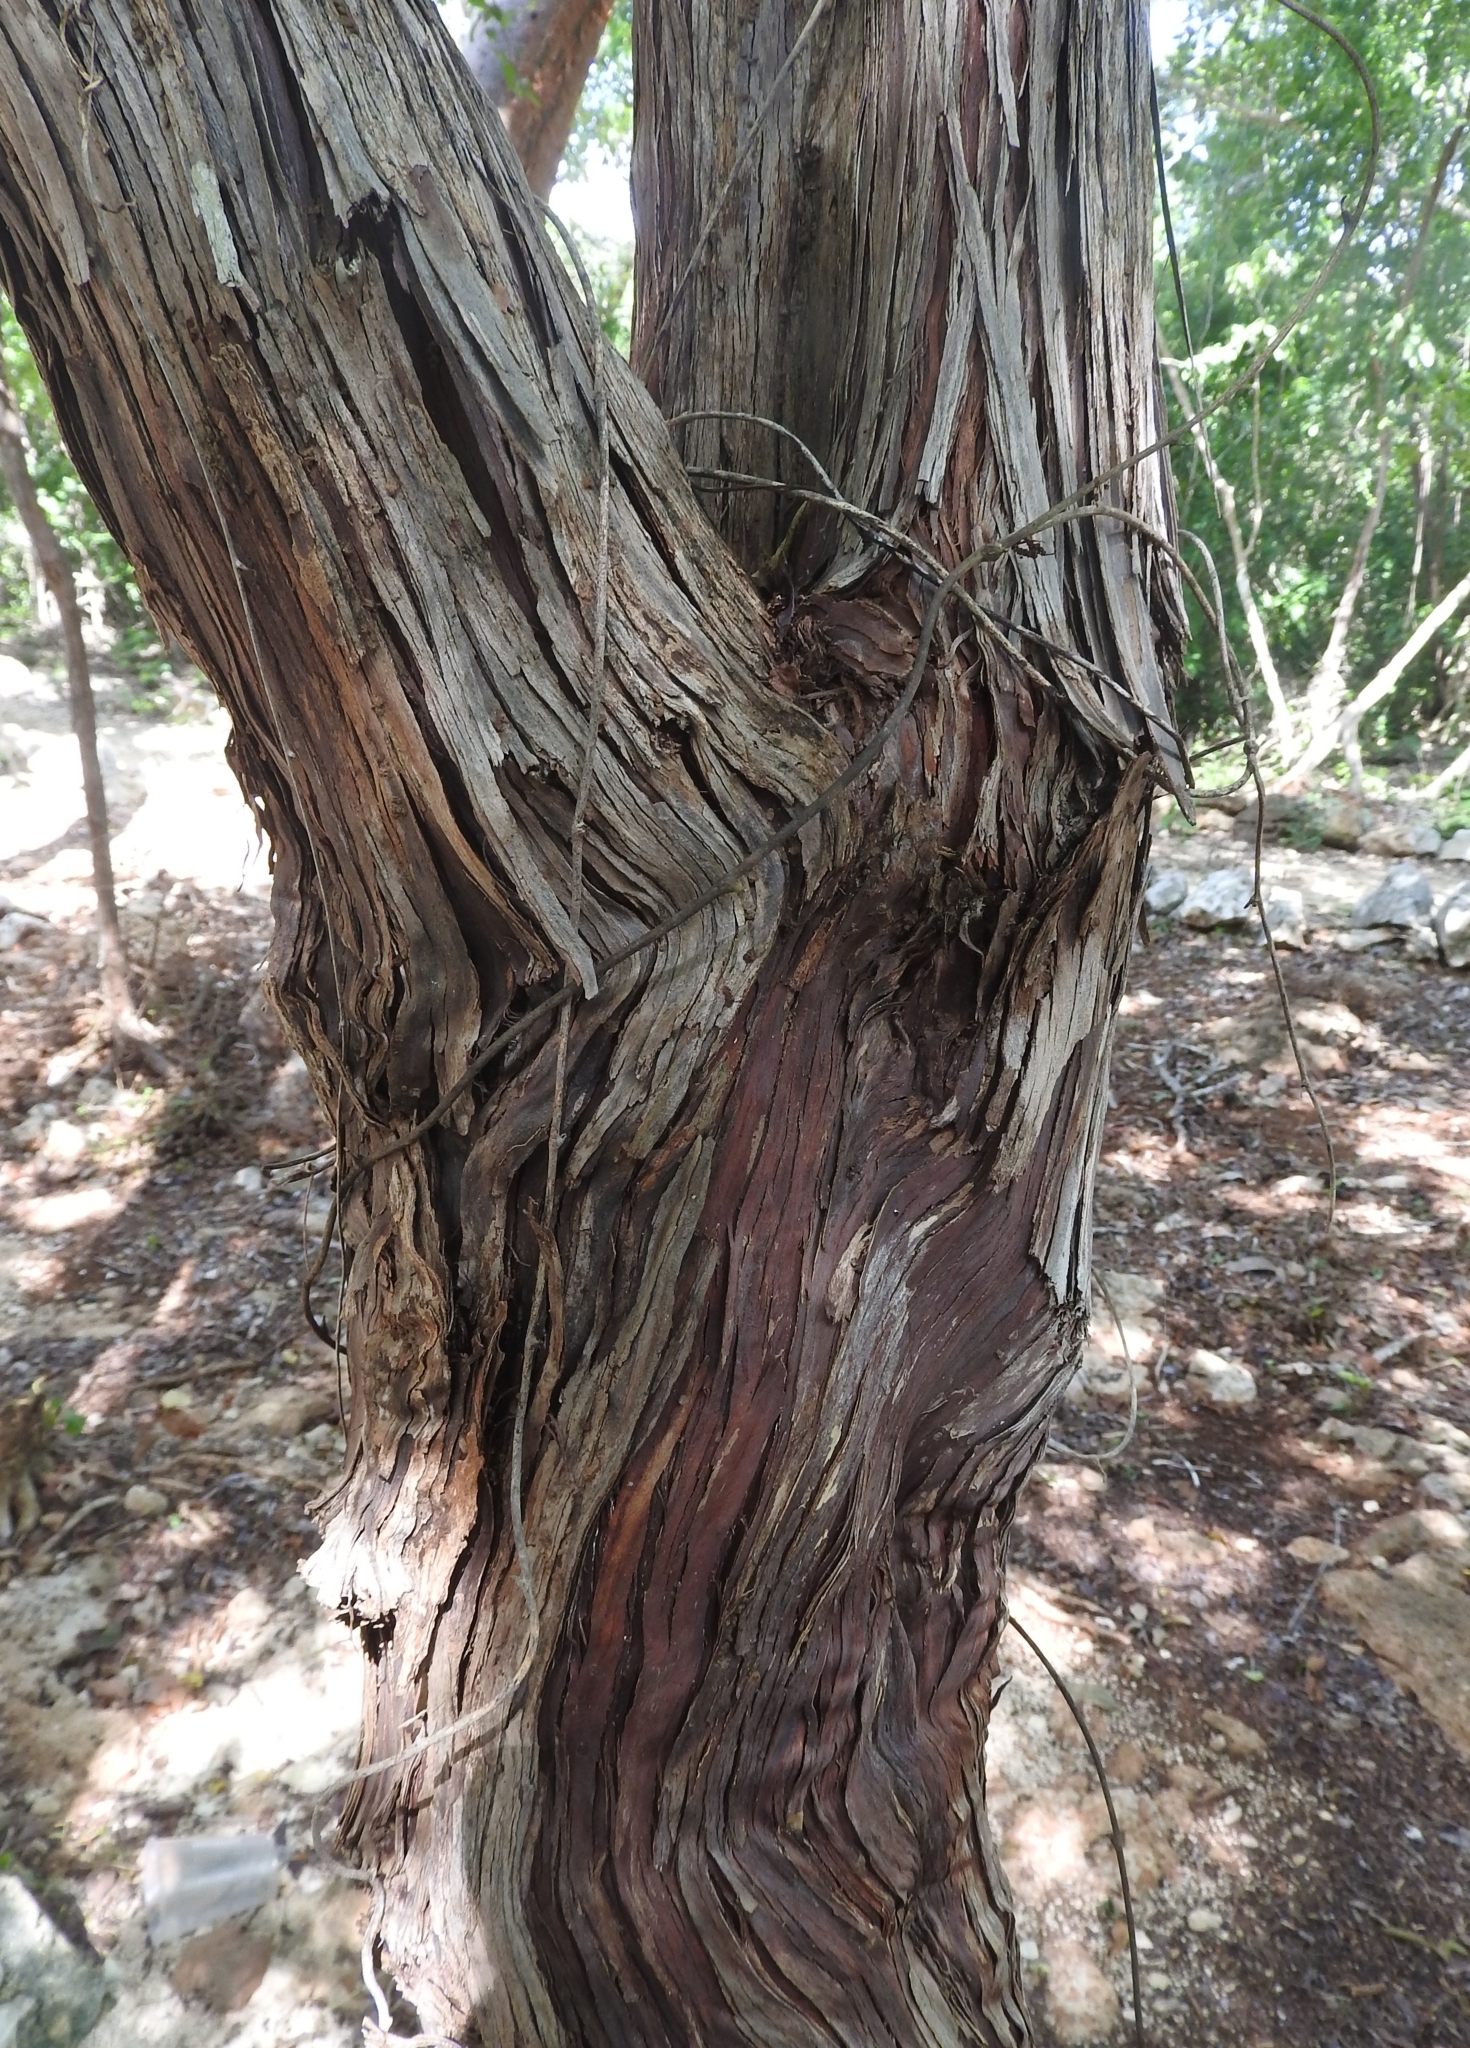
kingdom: Plantae
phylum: Tracheophyta
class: Magnoliopsida
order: Caryophyllales
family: Polygonaceae
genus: Gymnopodium
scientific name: Gymnopodium floribundum
